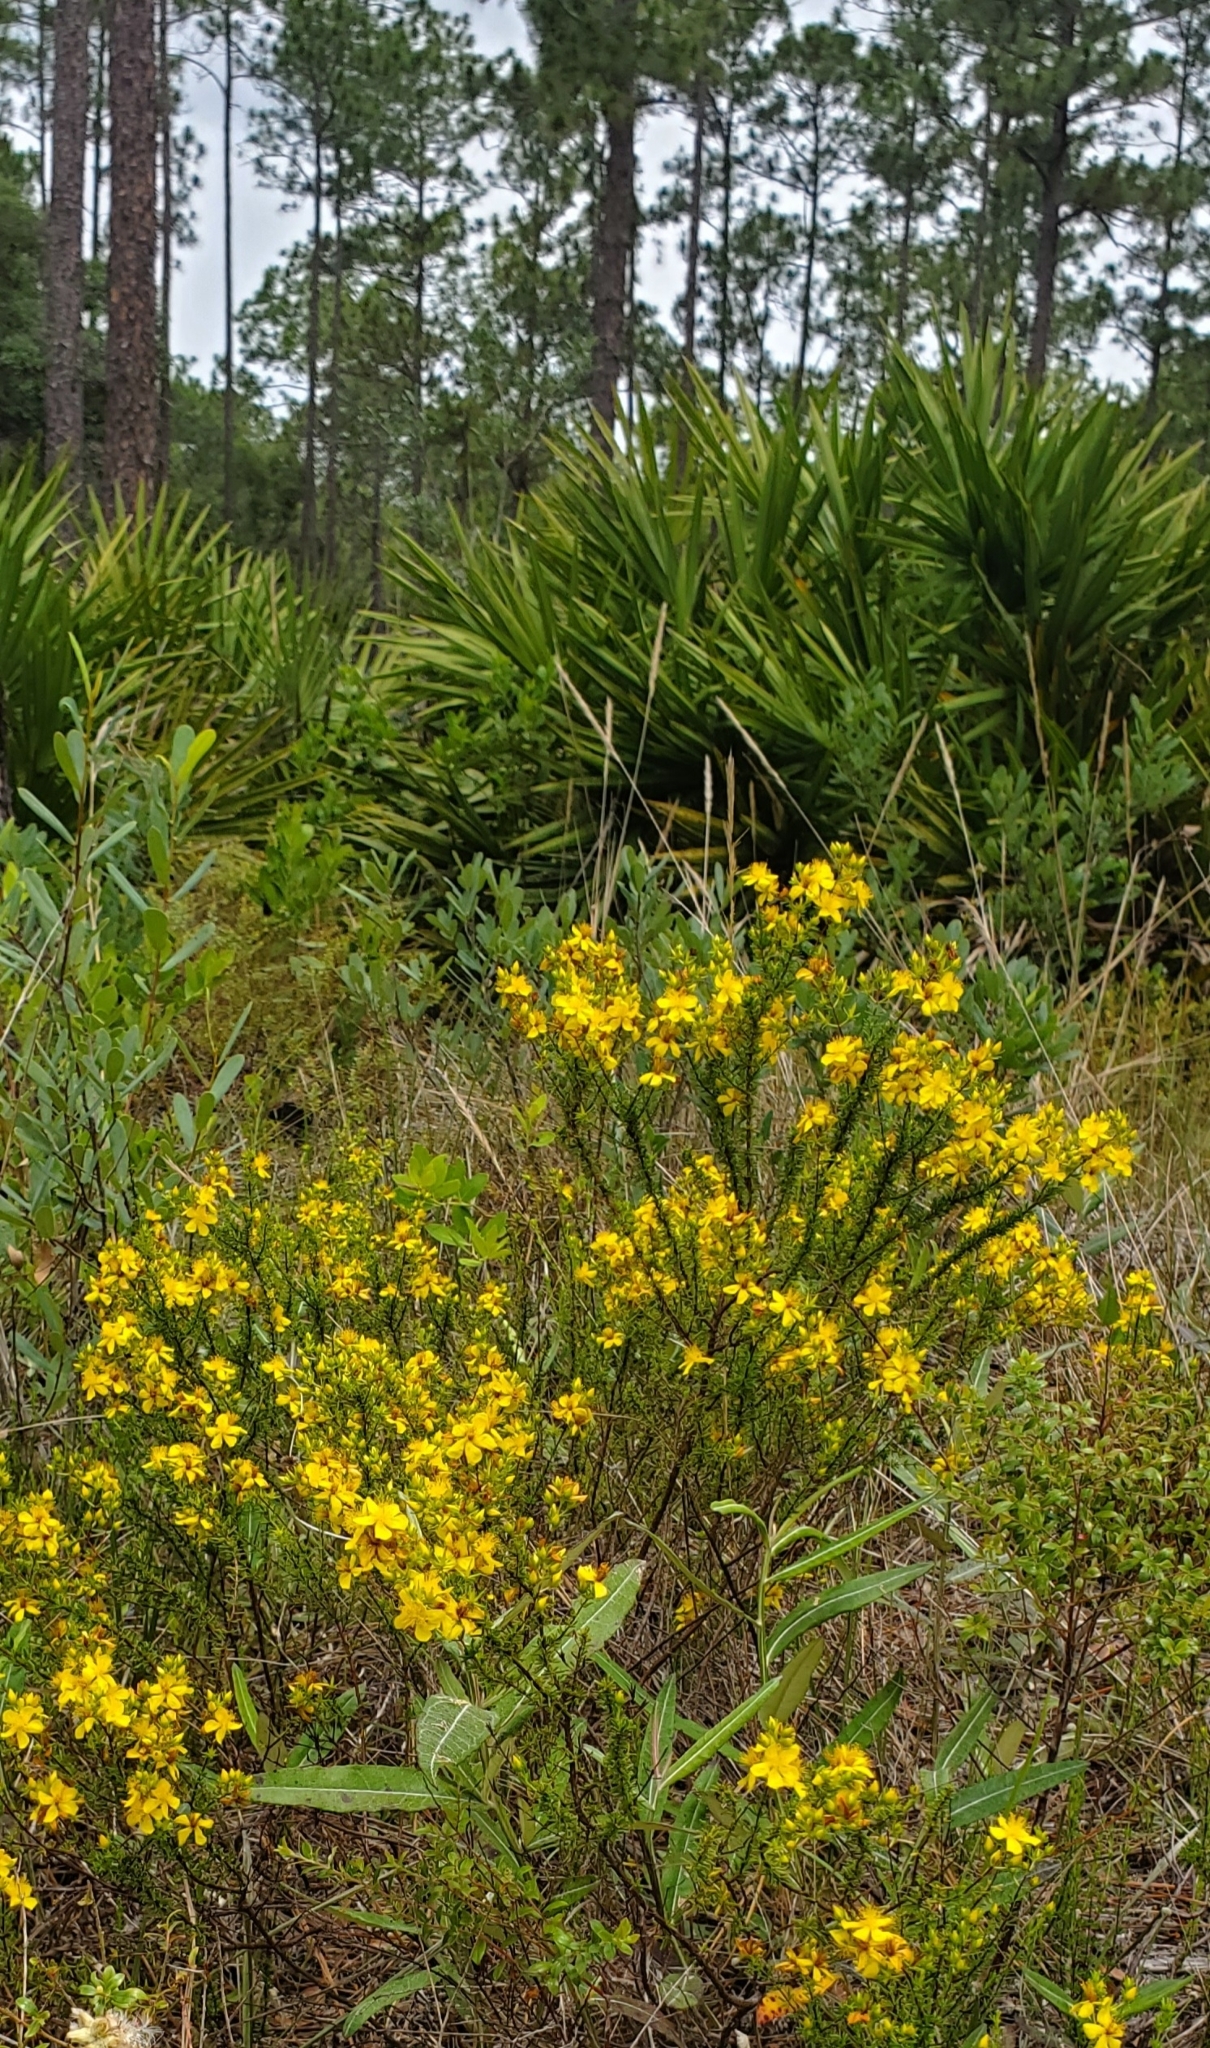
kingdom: Plantae
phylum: Tracheophyta
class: Magnoliopsida
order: Malpighiales
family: Hypericaceae
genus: Hypericum
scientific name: Hypericum tenuifolium
